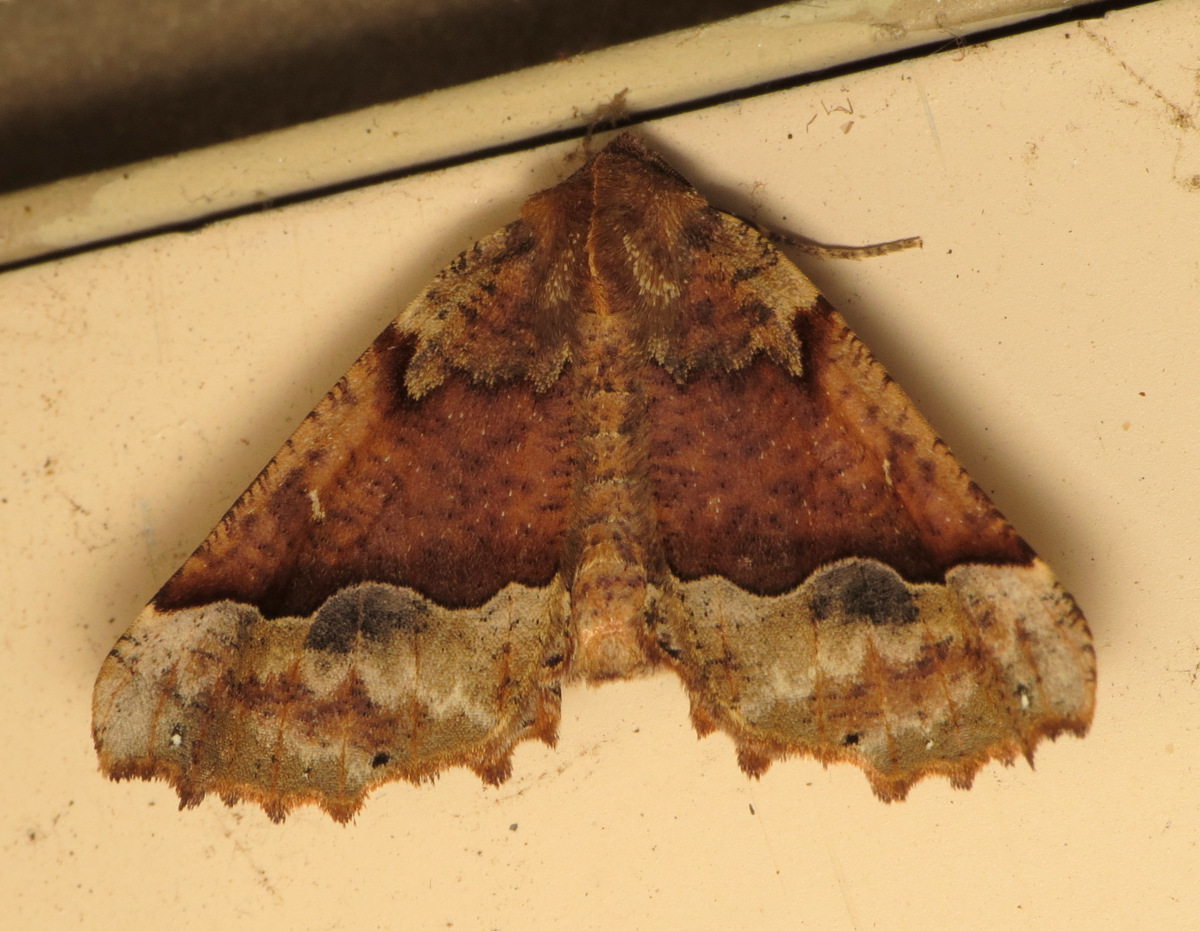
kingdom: Animalia
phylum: Arthropoda
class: Insecta
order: Lepidoptera
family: Geometridae
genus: Pero
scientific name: Pero morrisonaria
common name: Morrison's pero
